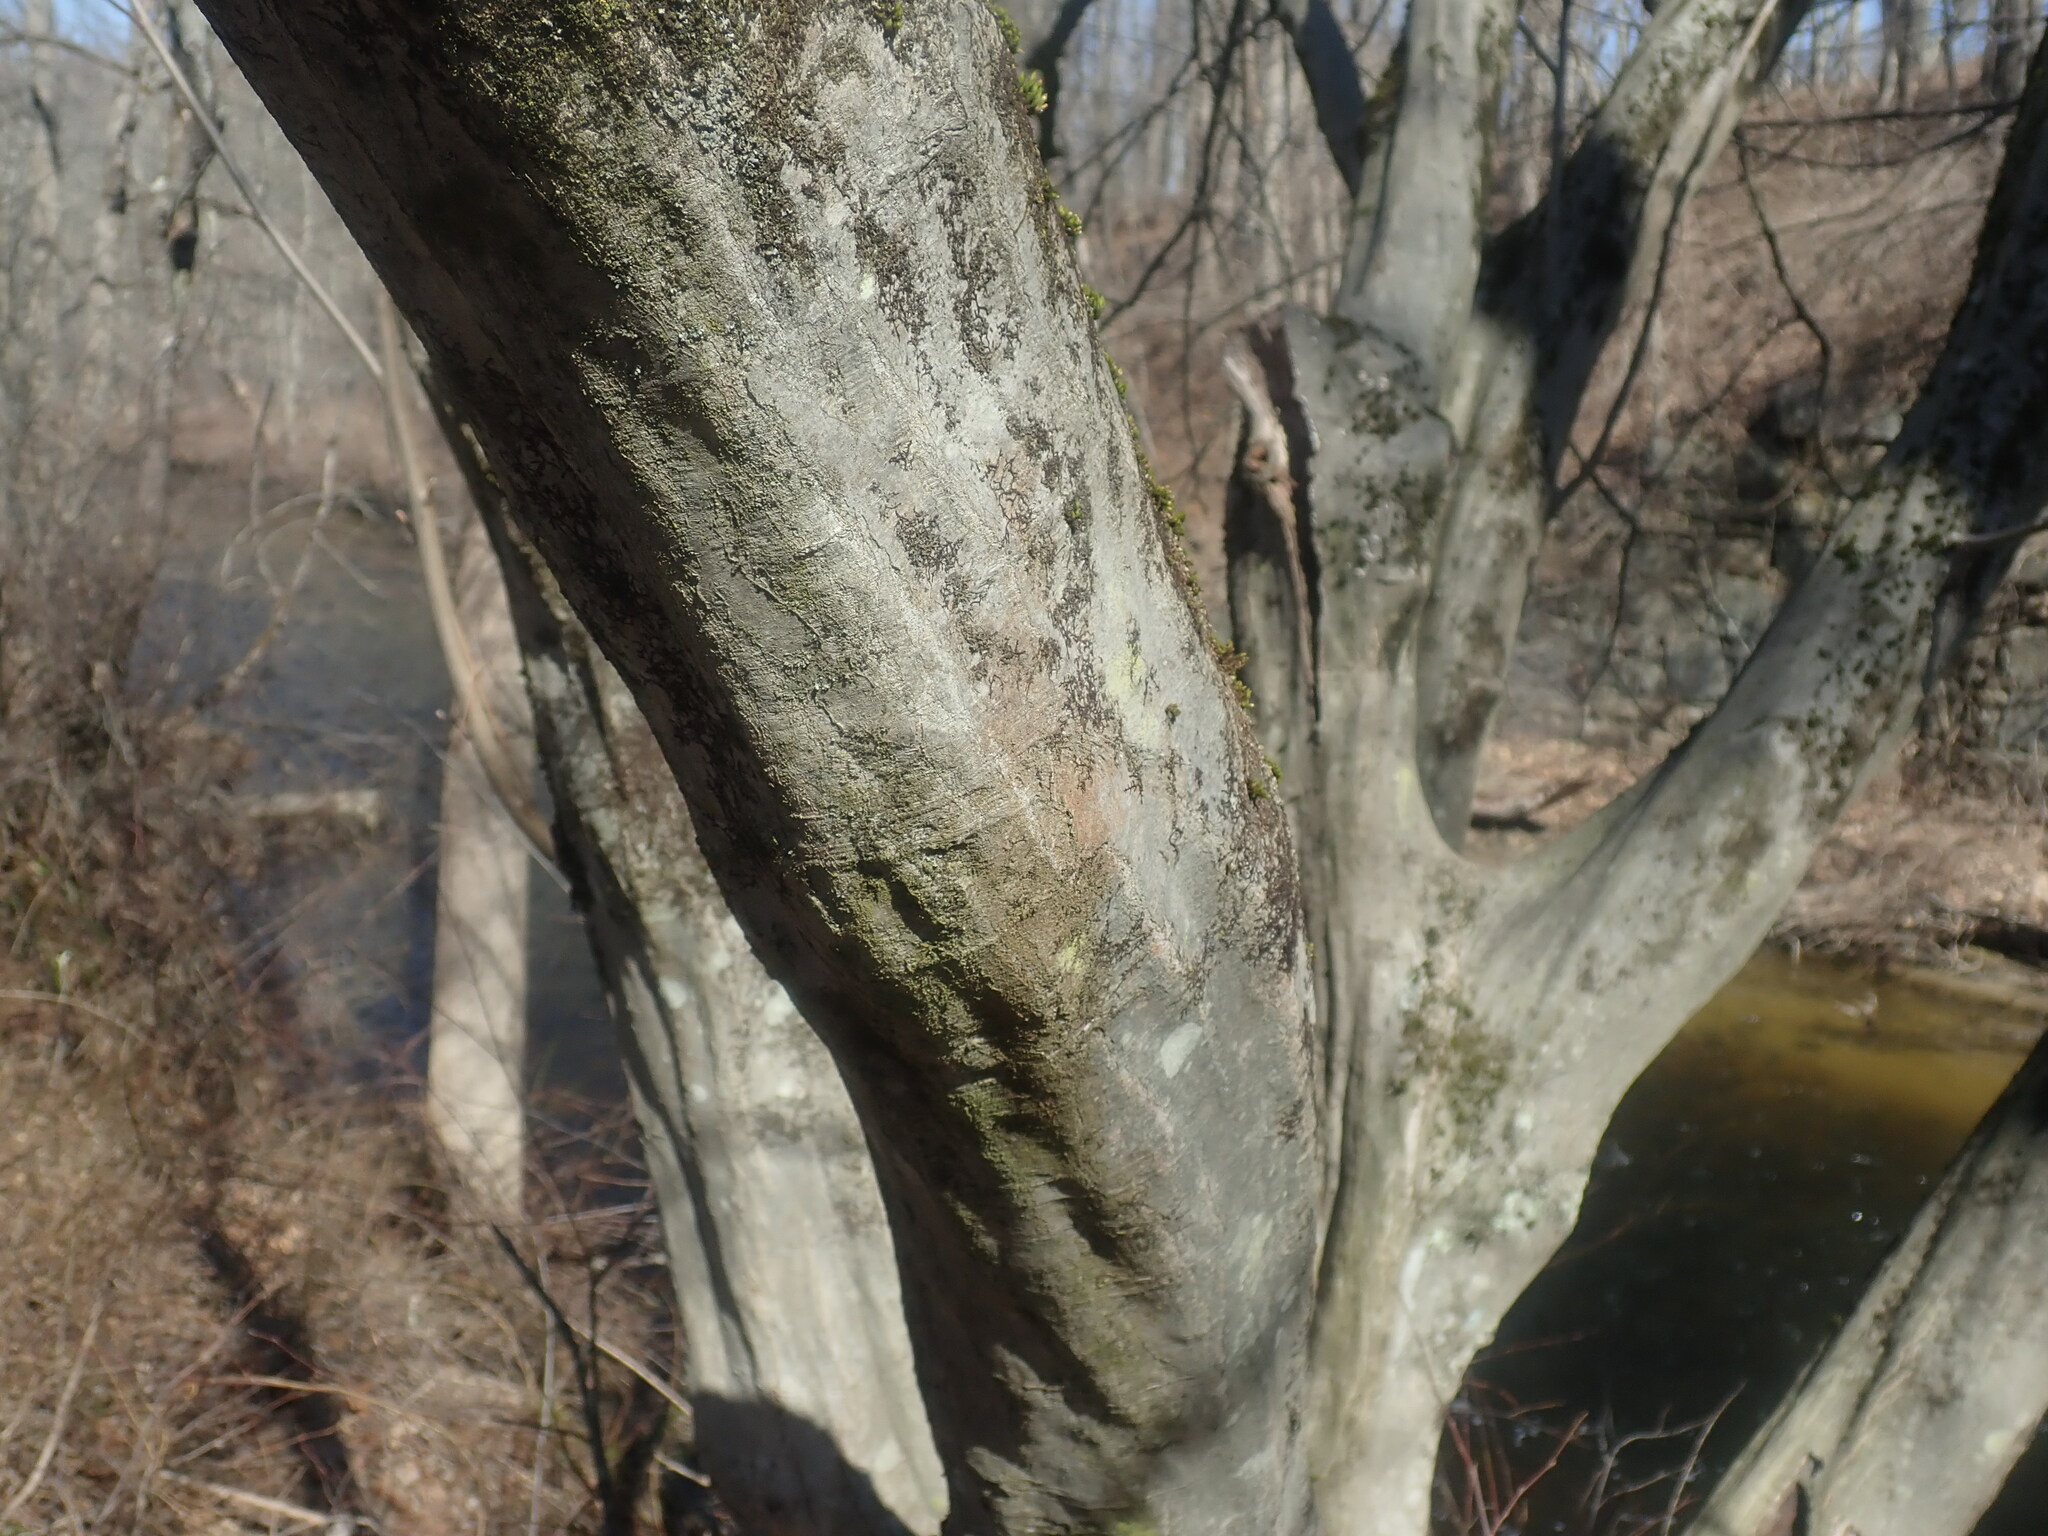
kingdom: Plantae
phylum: Tracheophyta
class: Magnoliopsida
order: Fagales
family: Betulaceae
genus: Carpinus
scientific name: Carpinus caroliniana
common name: American hornbeam
